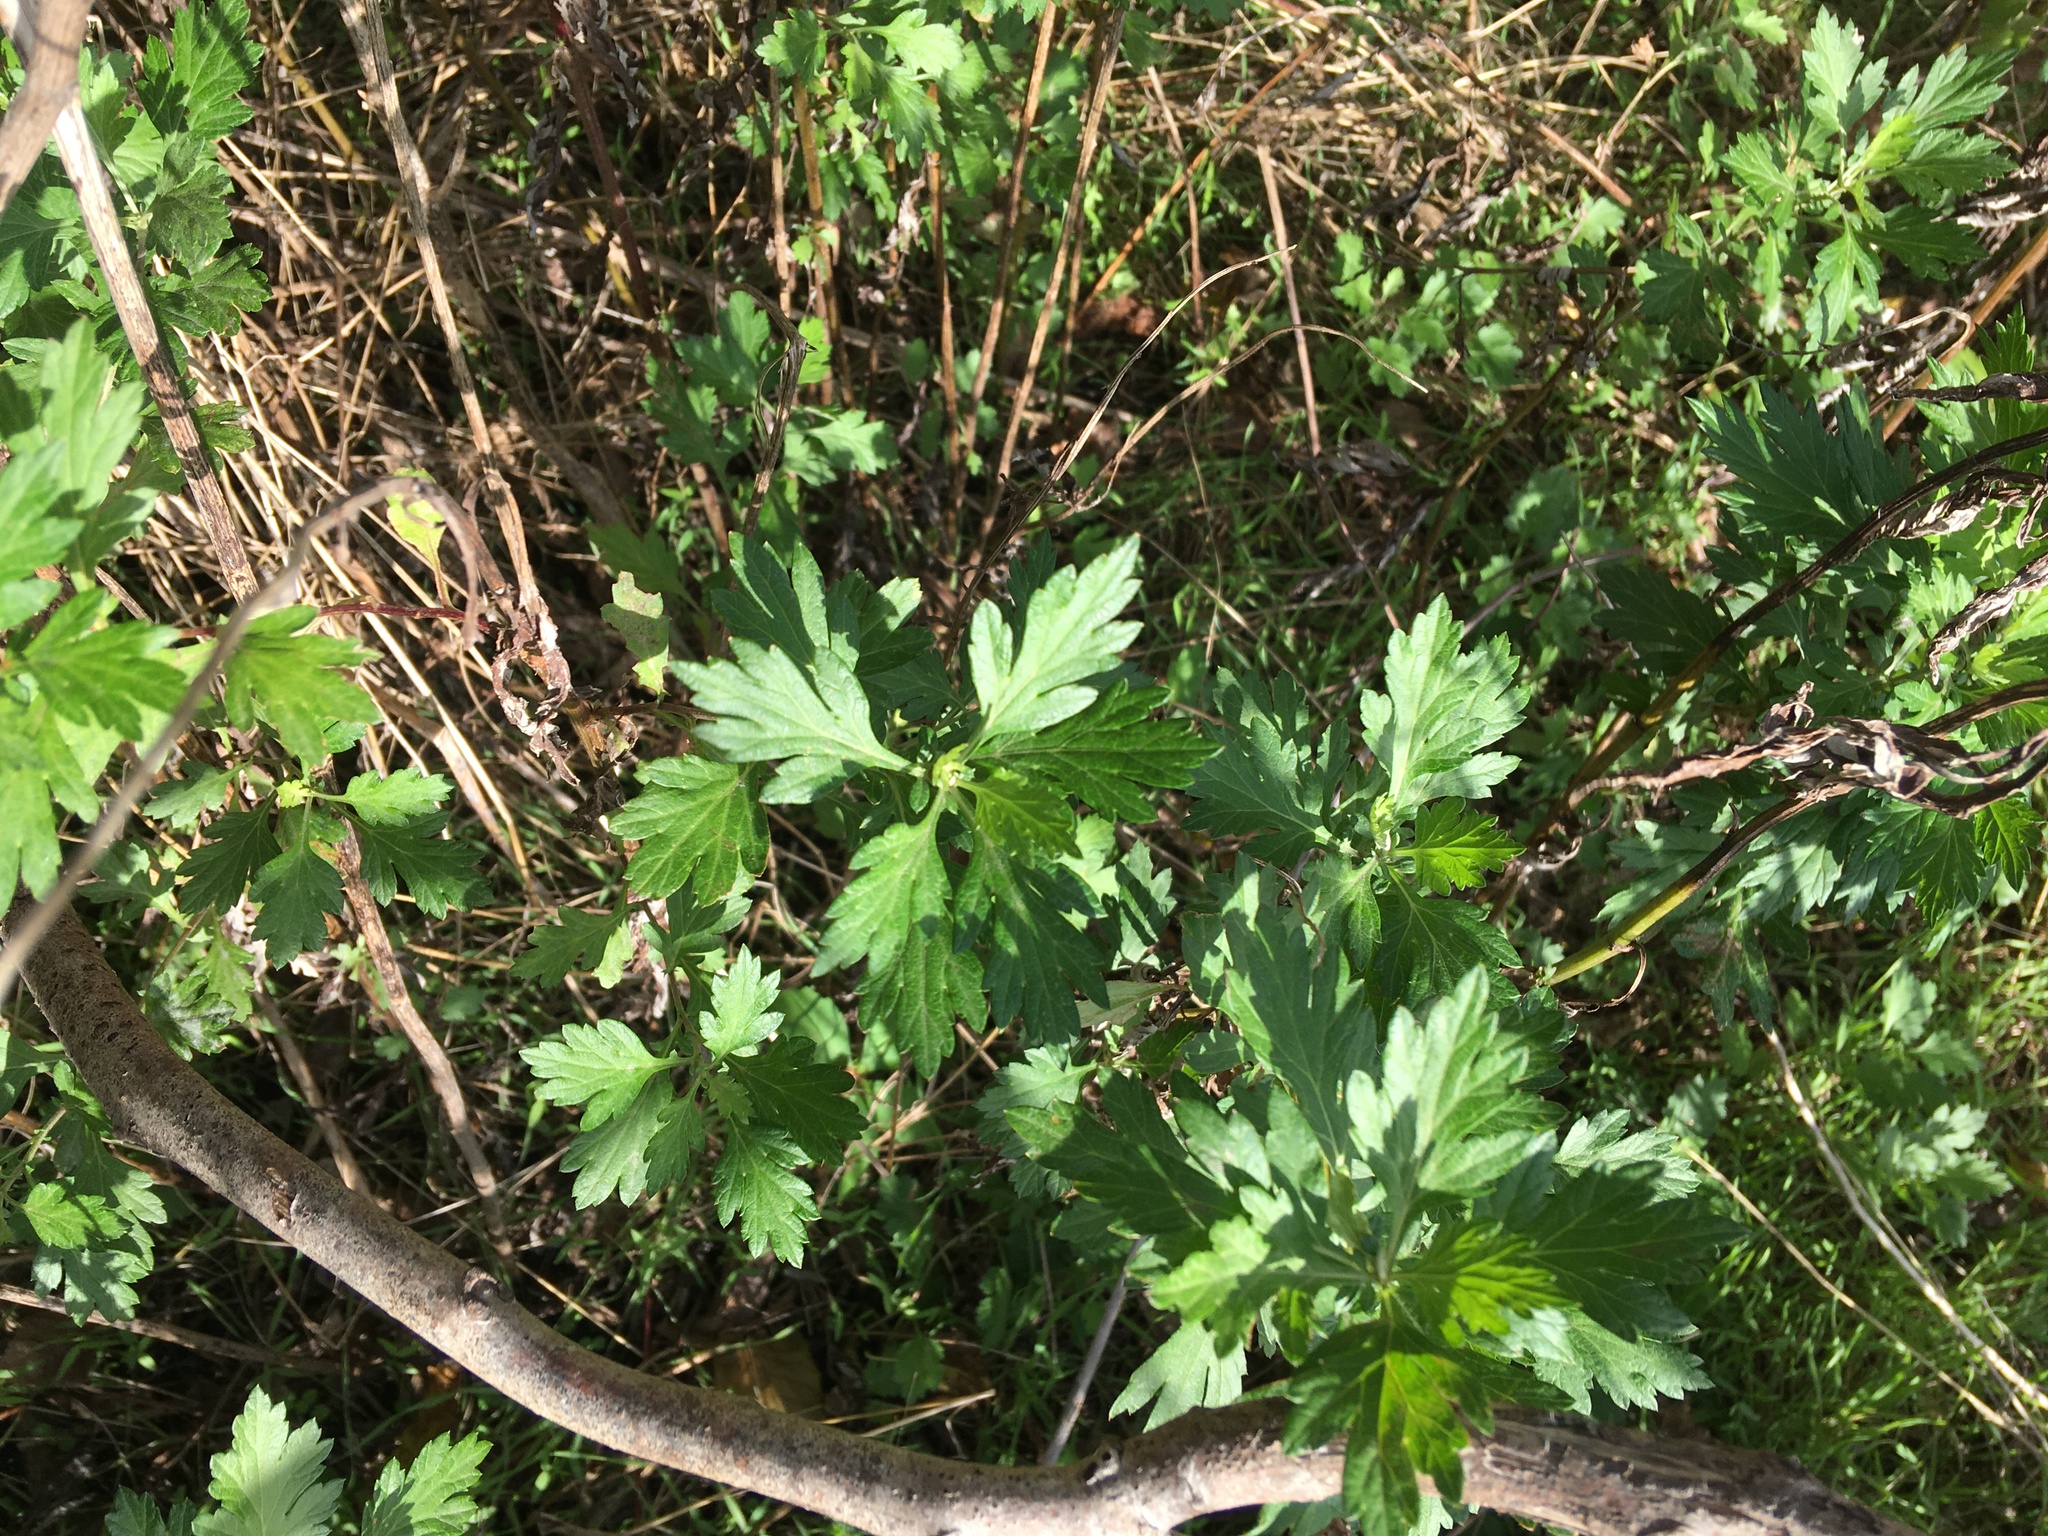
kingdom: Plantae
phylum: Tracheophyta
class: Magnoliopsida
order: Asterales
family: Asteraceae
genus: Artemisia
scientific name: Artemisia vulgaris
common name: Mugwort
